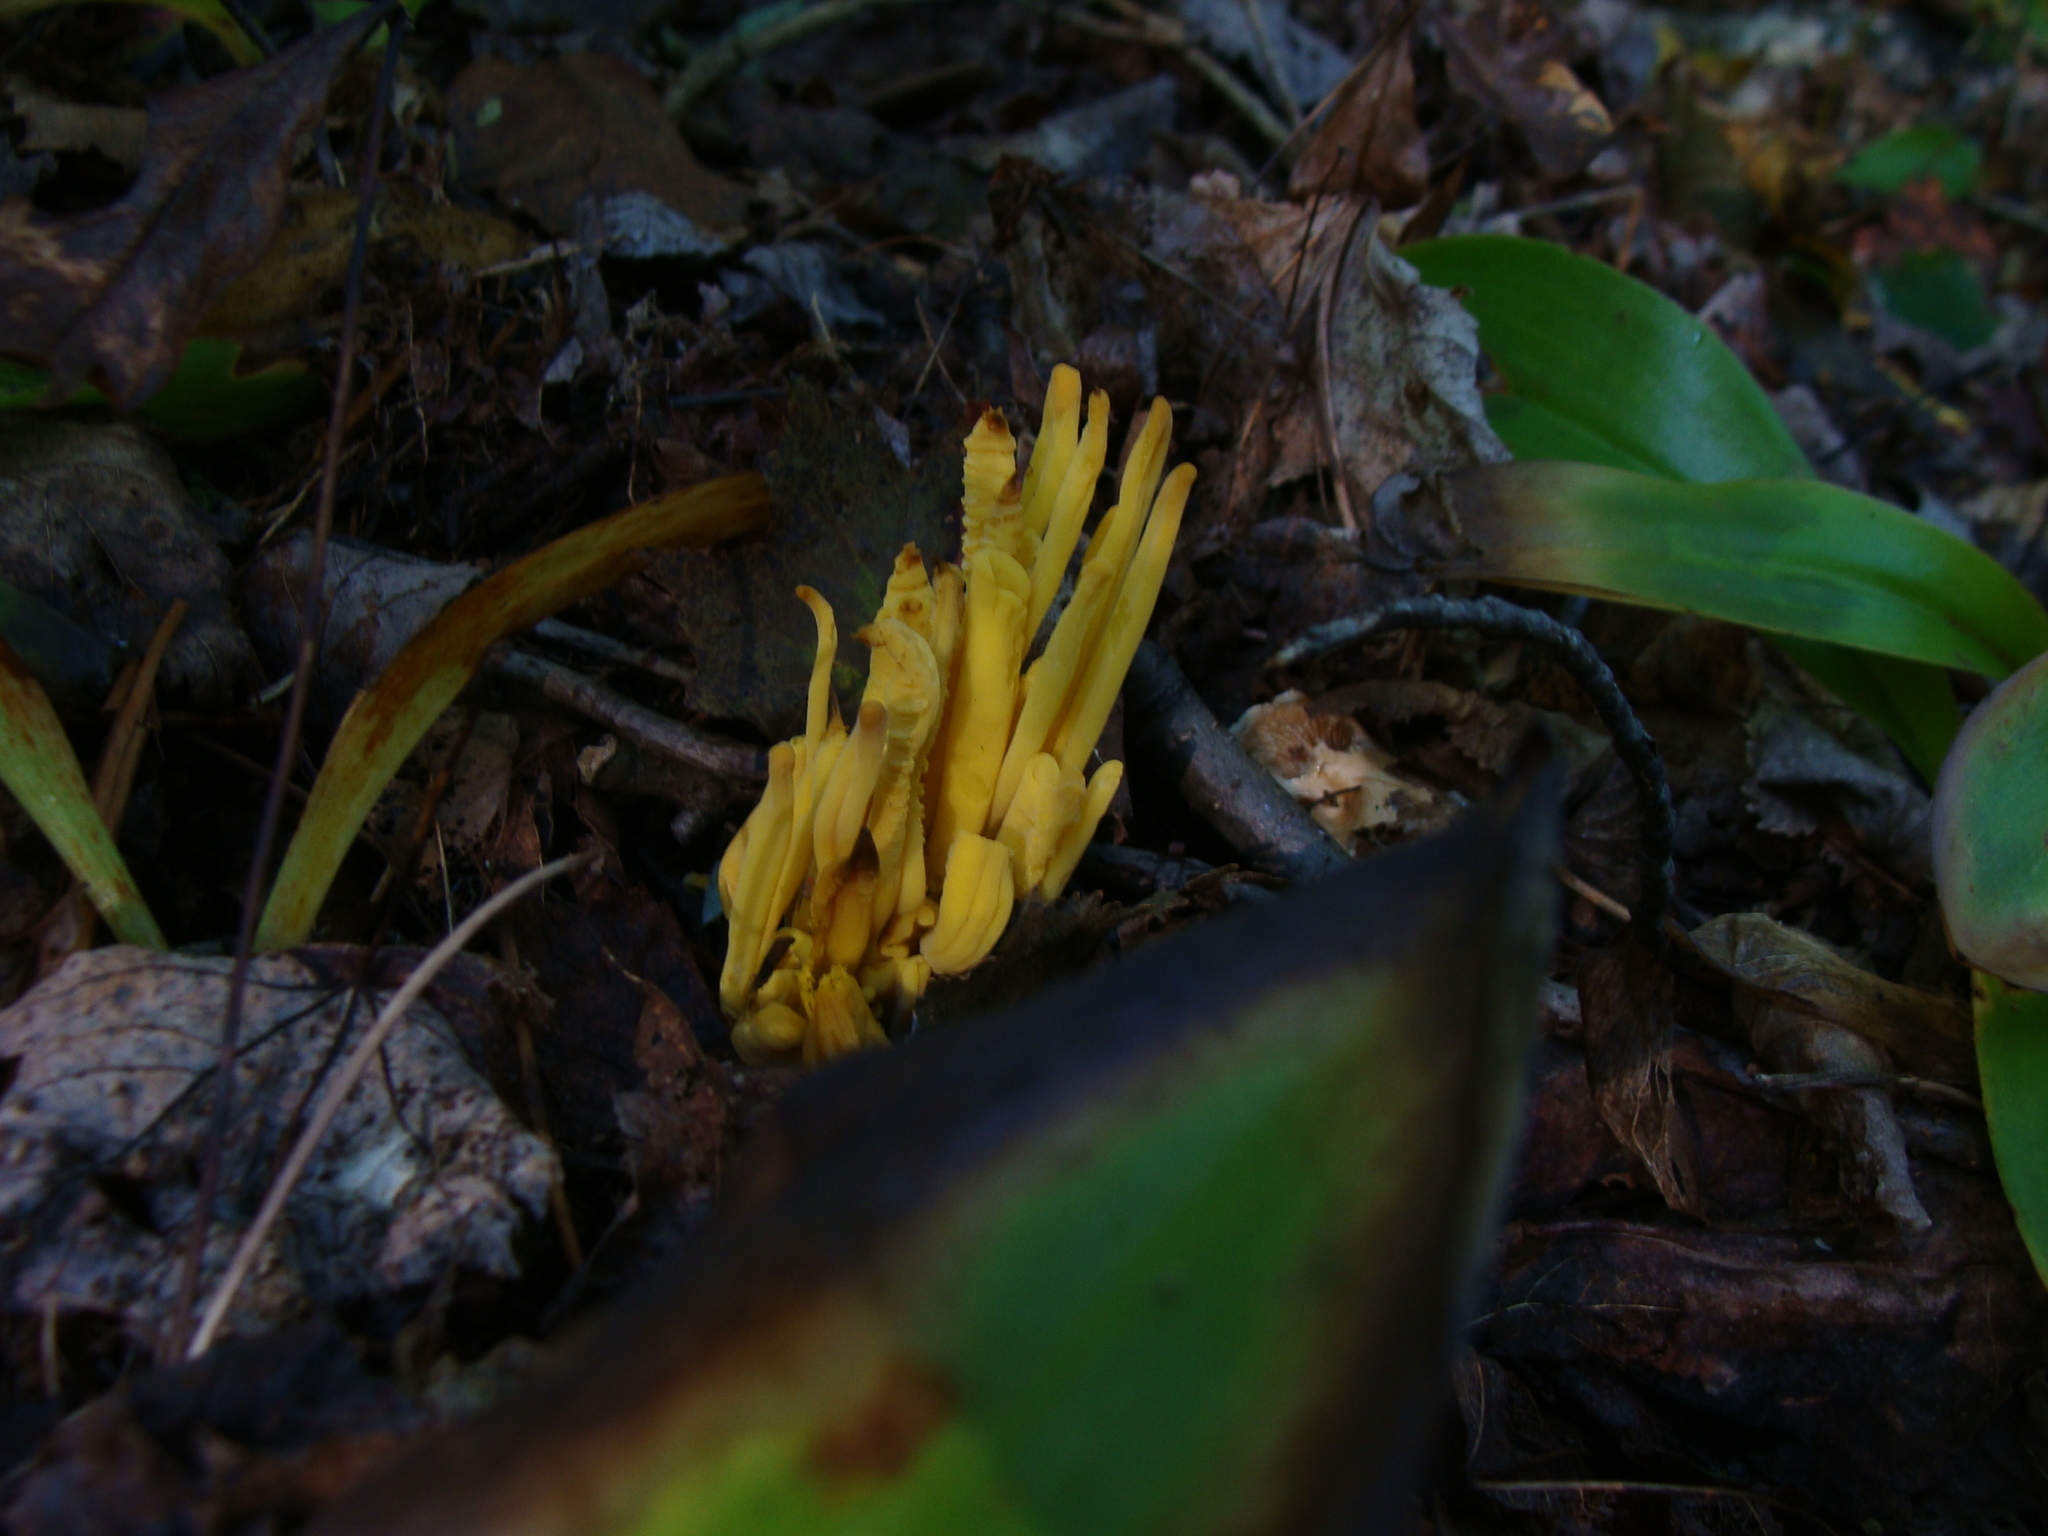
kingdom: Fungi
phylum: Basidiomycota
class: Agaricomycetes
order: Agaricales
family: Clavariaceae
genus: Clavulinopsis
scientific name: Clavulinopsis fusiformis
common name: Golden spindles
